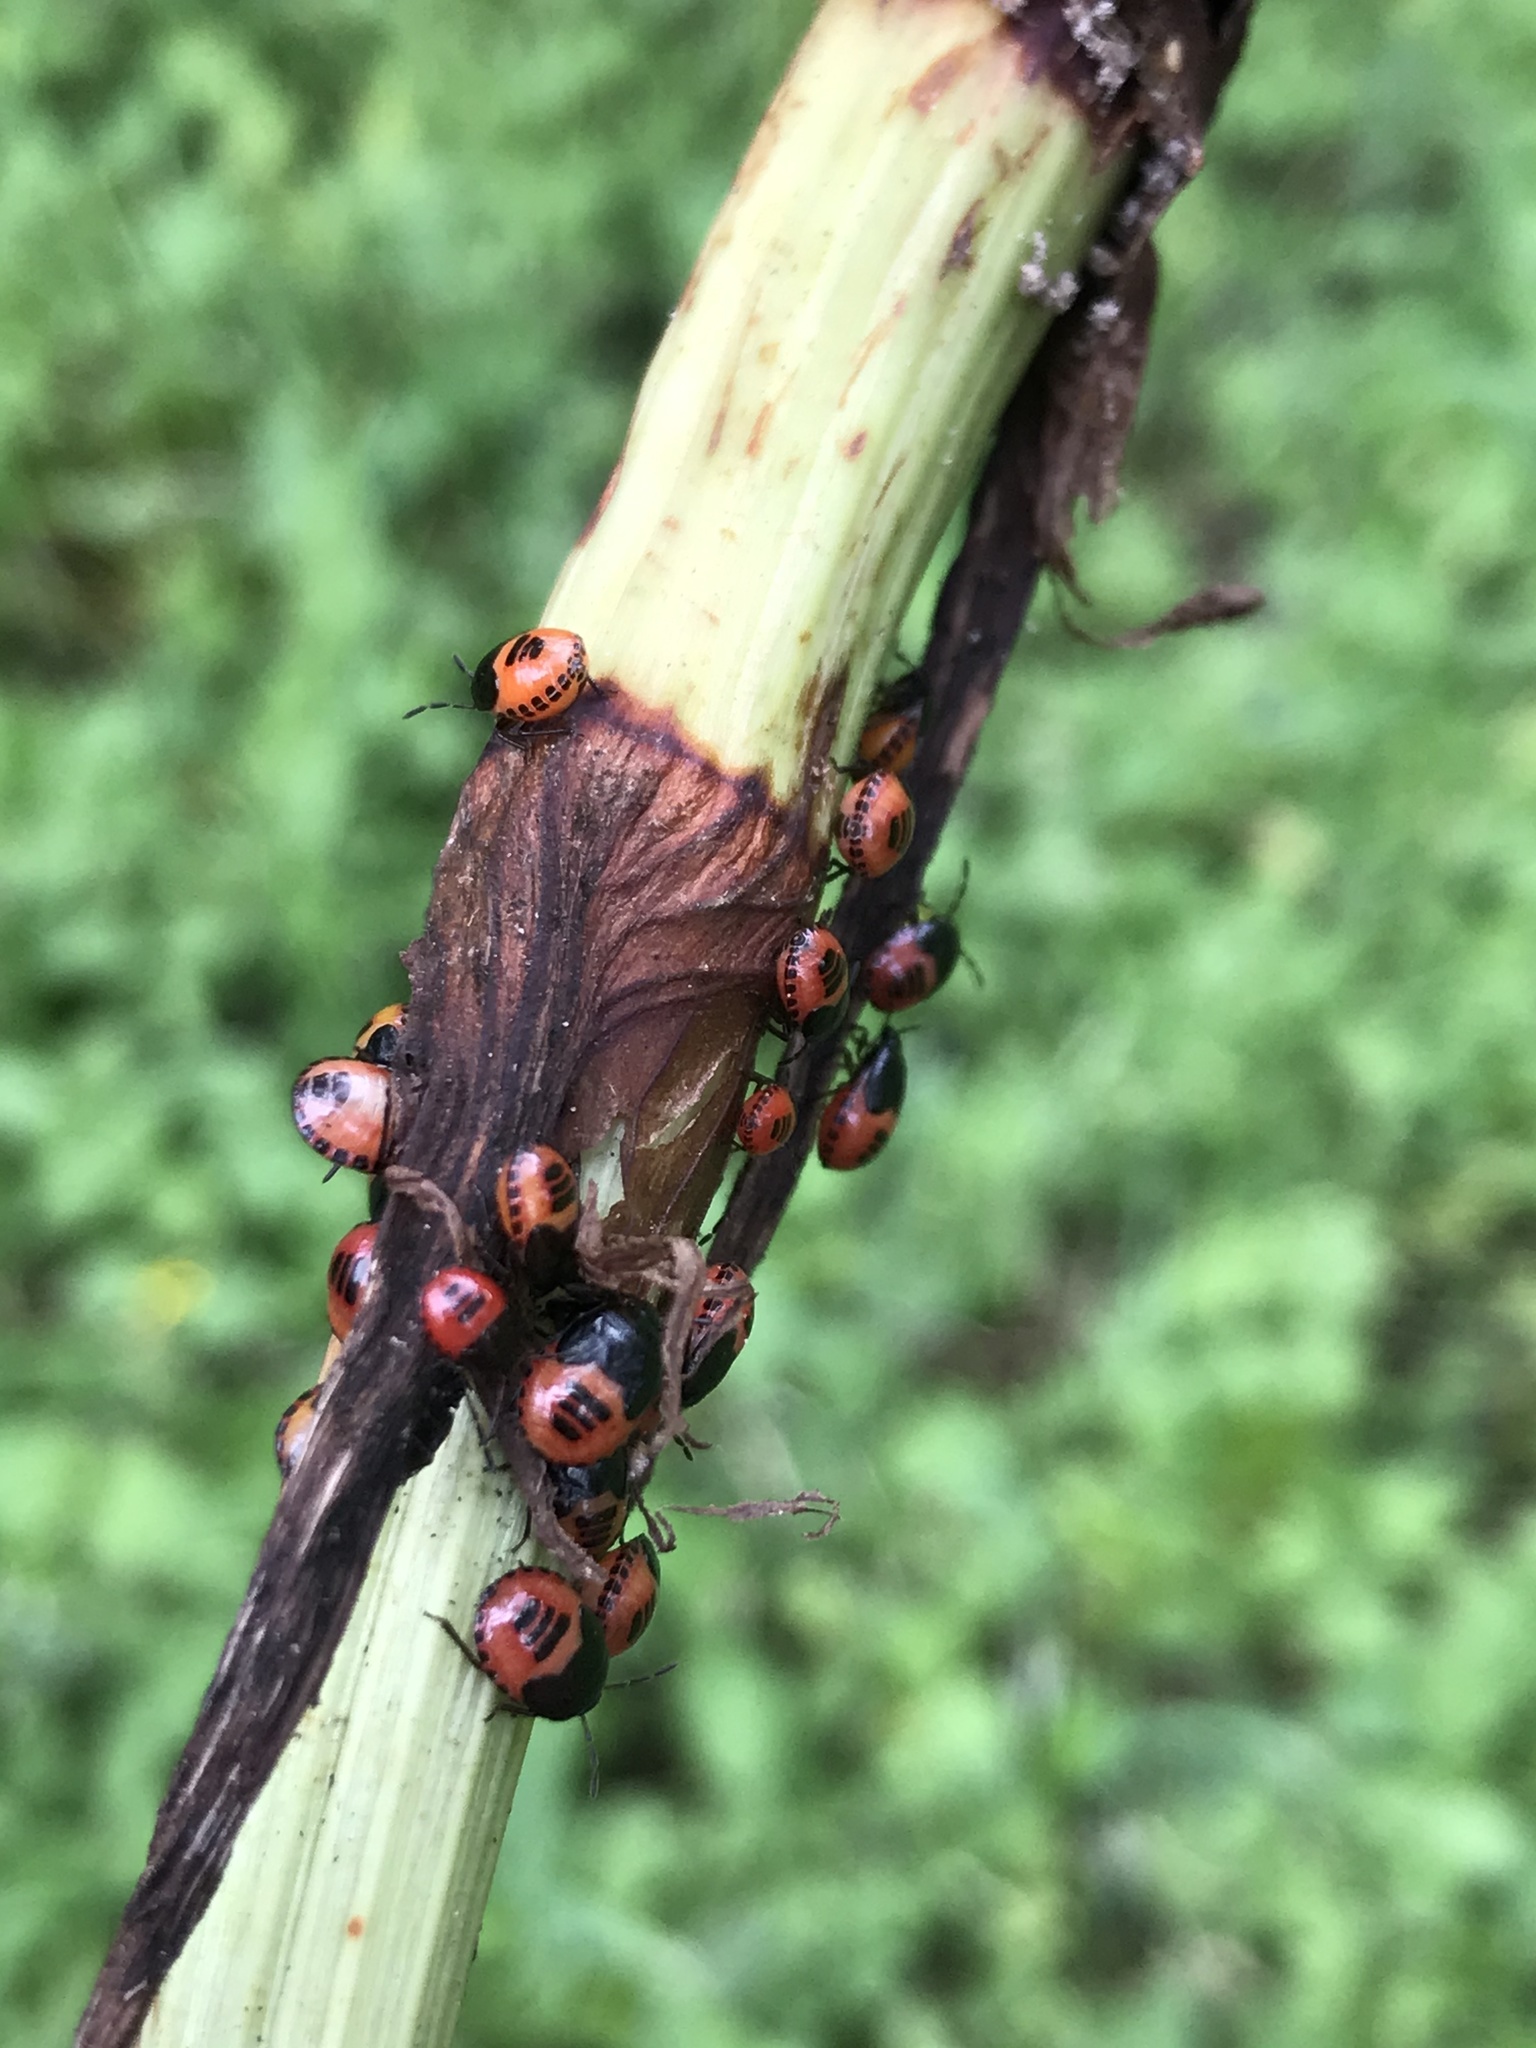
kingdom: Animalia
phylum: Arthropoda
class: Insecta
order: Hemiptera
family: Cydnidae
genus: Sehirus
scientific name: Sehirus cinctus
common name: White-margined burrower bug
